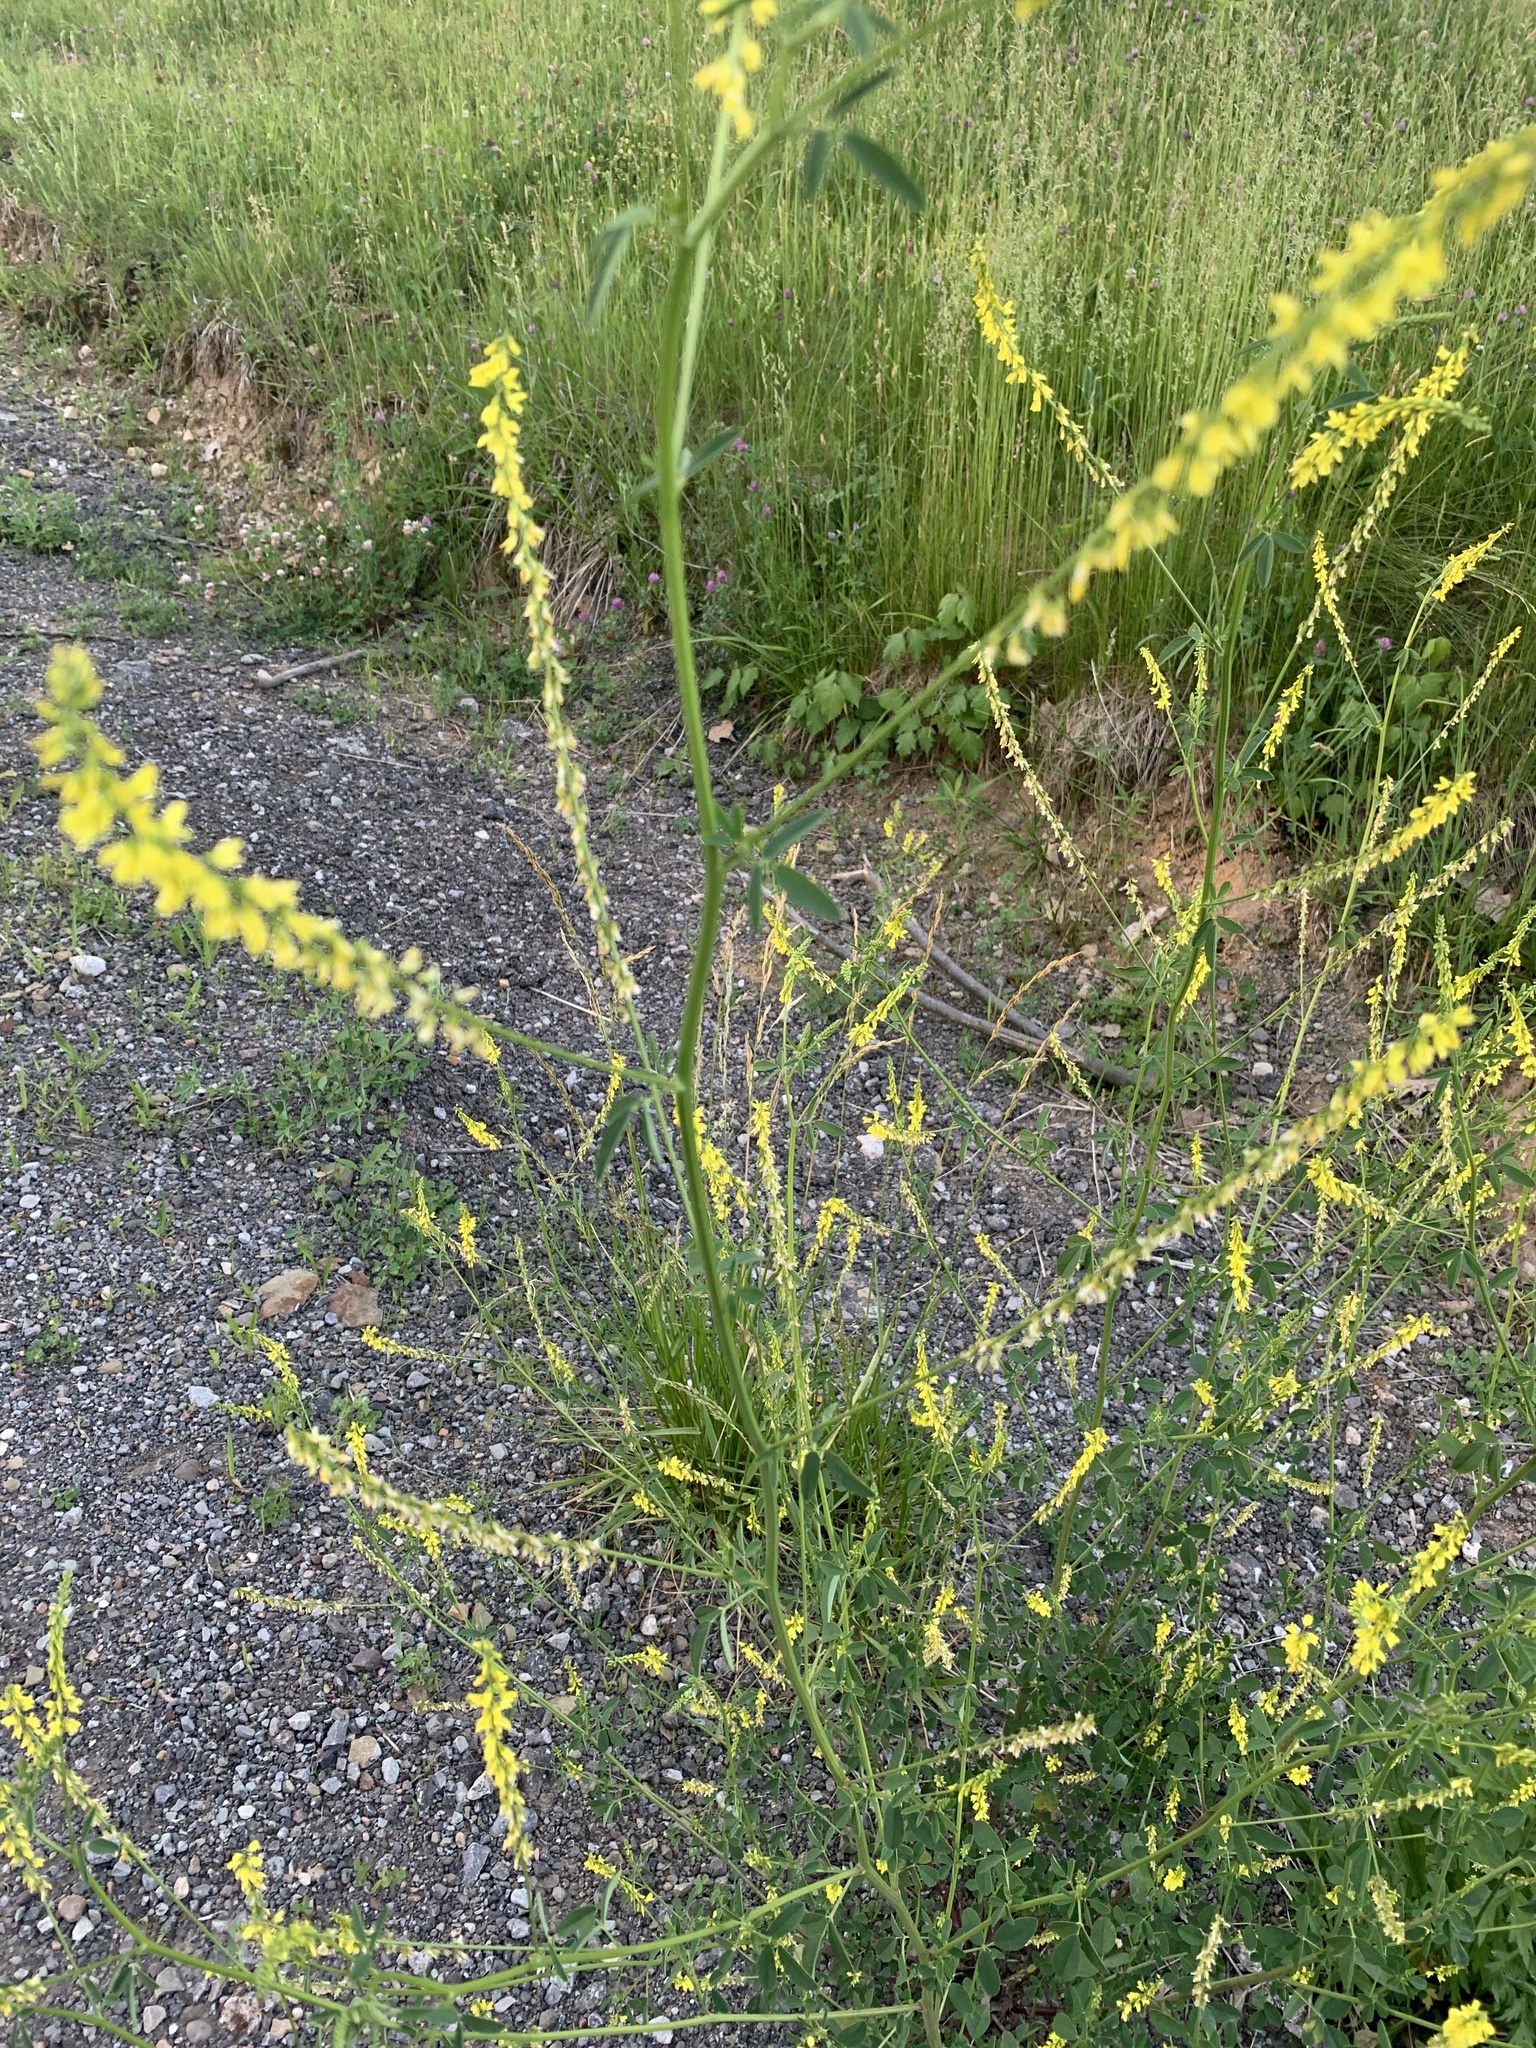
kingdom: Plantae
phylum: Tracheophyta
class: Magnoliopsida
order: Fabales
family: Fabaceae
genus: Melilotus
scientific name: Melilotus officinalis
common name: Sweetclover
